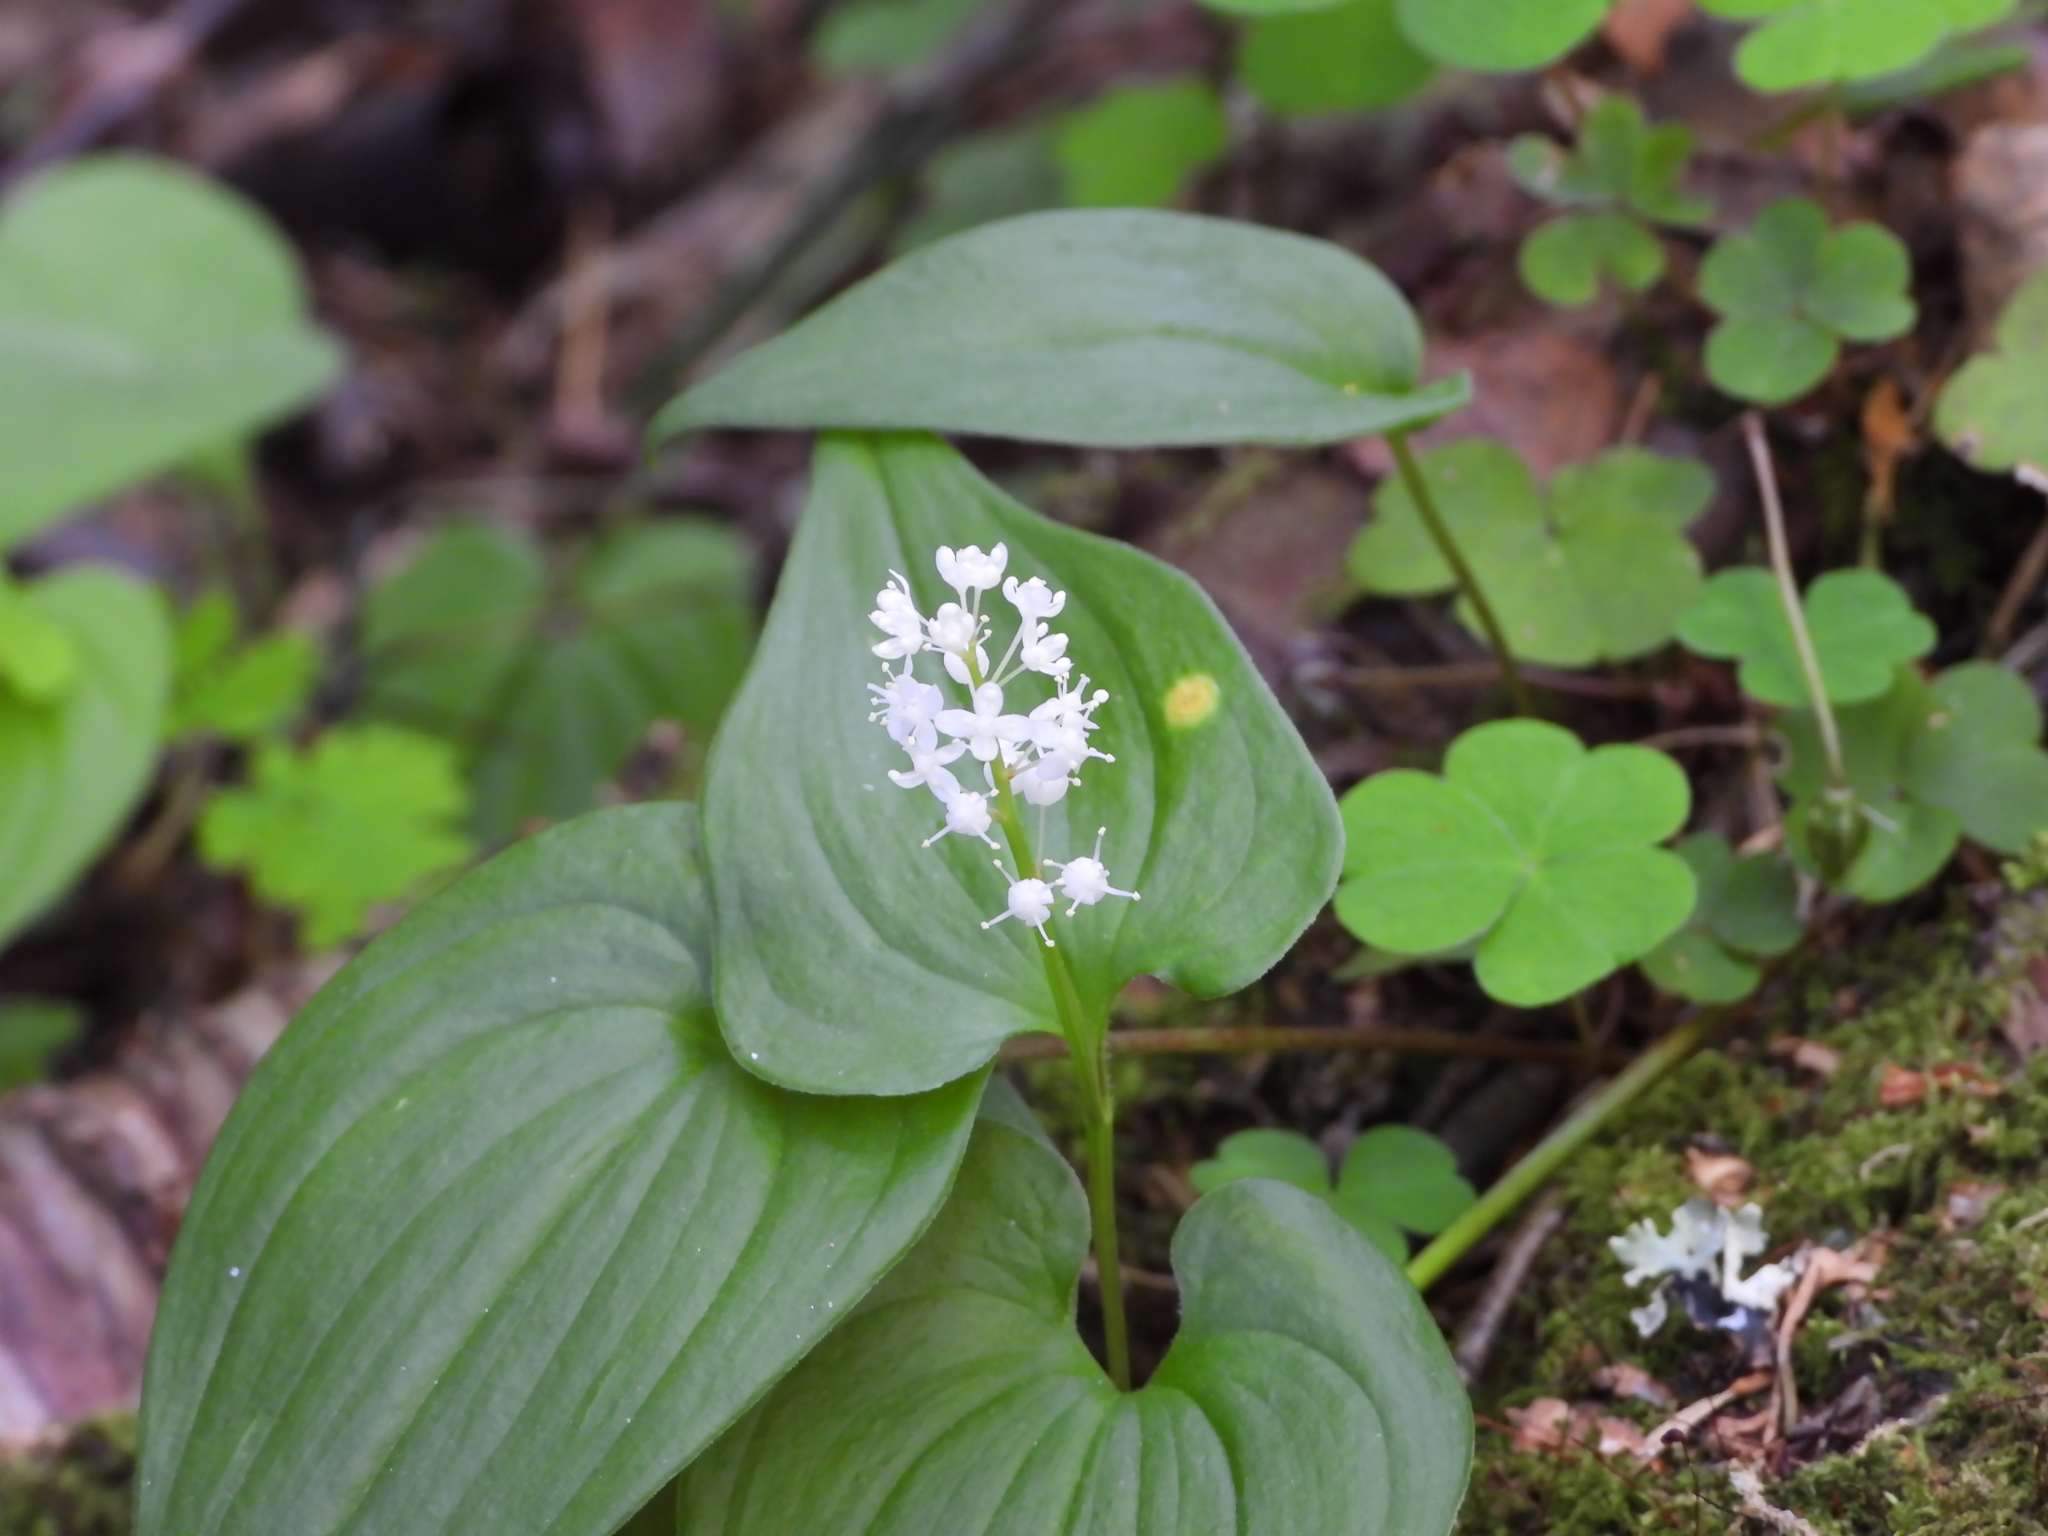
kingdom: Plantae
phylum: Tracheophyta
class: Liliopsida
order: Asparagales
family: Asparagaceae
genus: Maianthemum
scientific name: Maianthemum bifolium
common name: May lily
